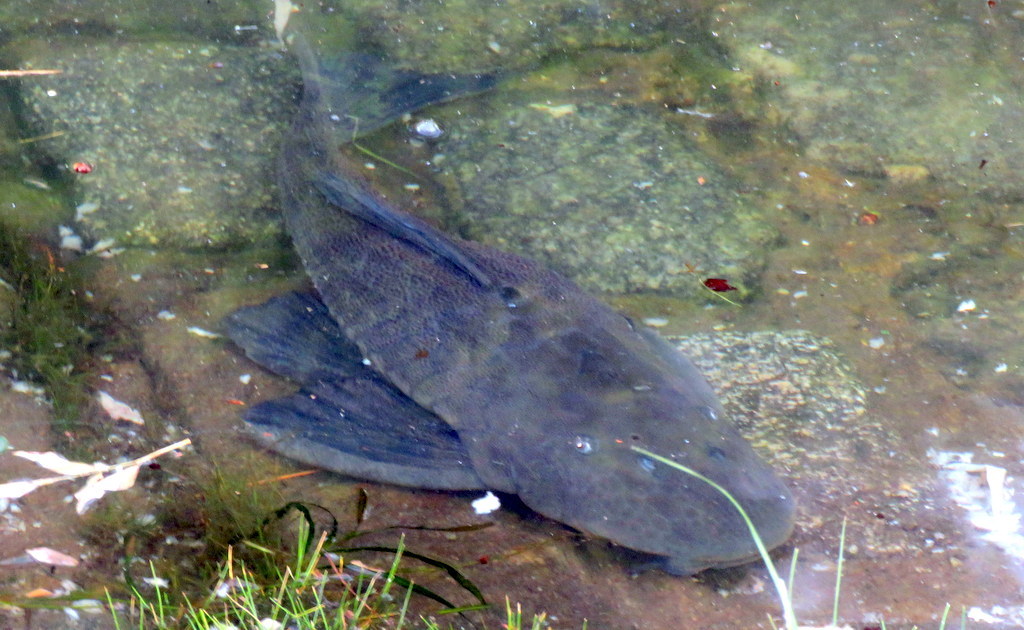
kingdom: Animalia
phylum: Chordata
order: Siluriformes
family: Loricariidae
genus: Hypostomus
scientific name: Hypostomus commersoni
